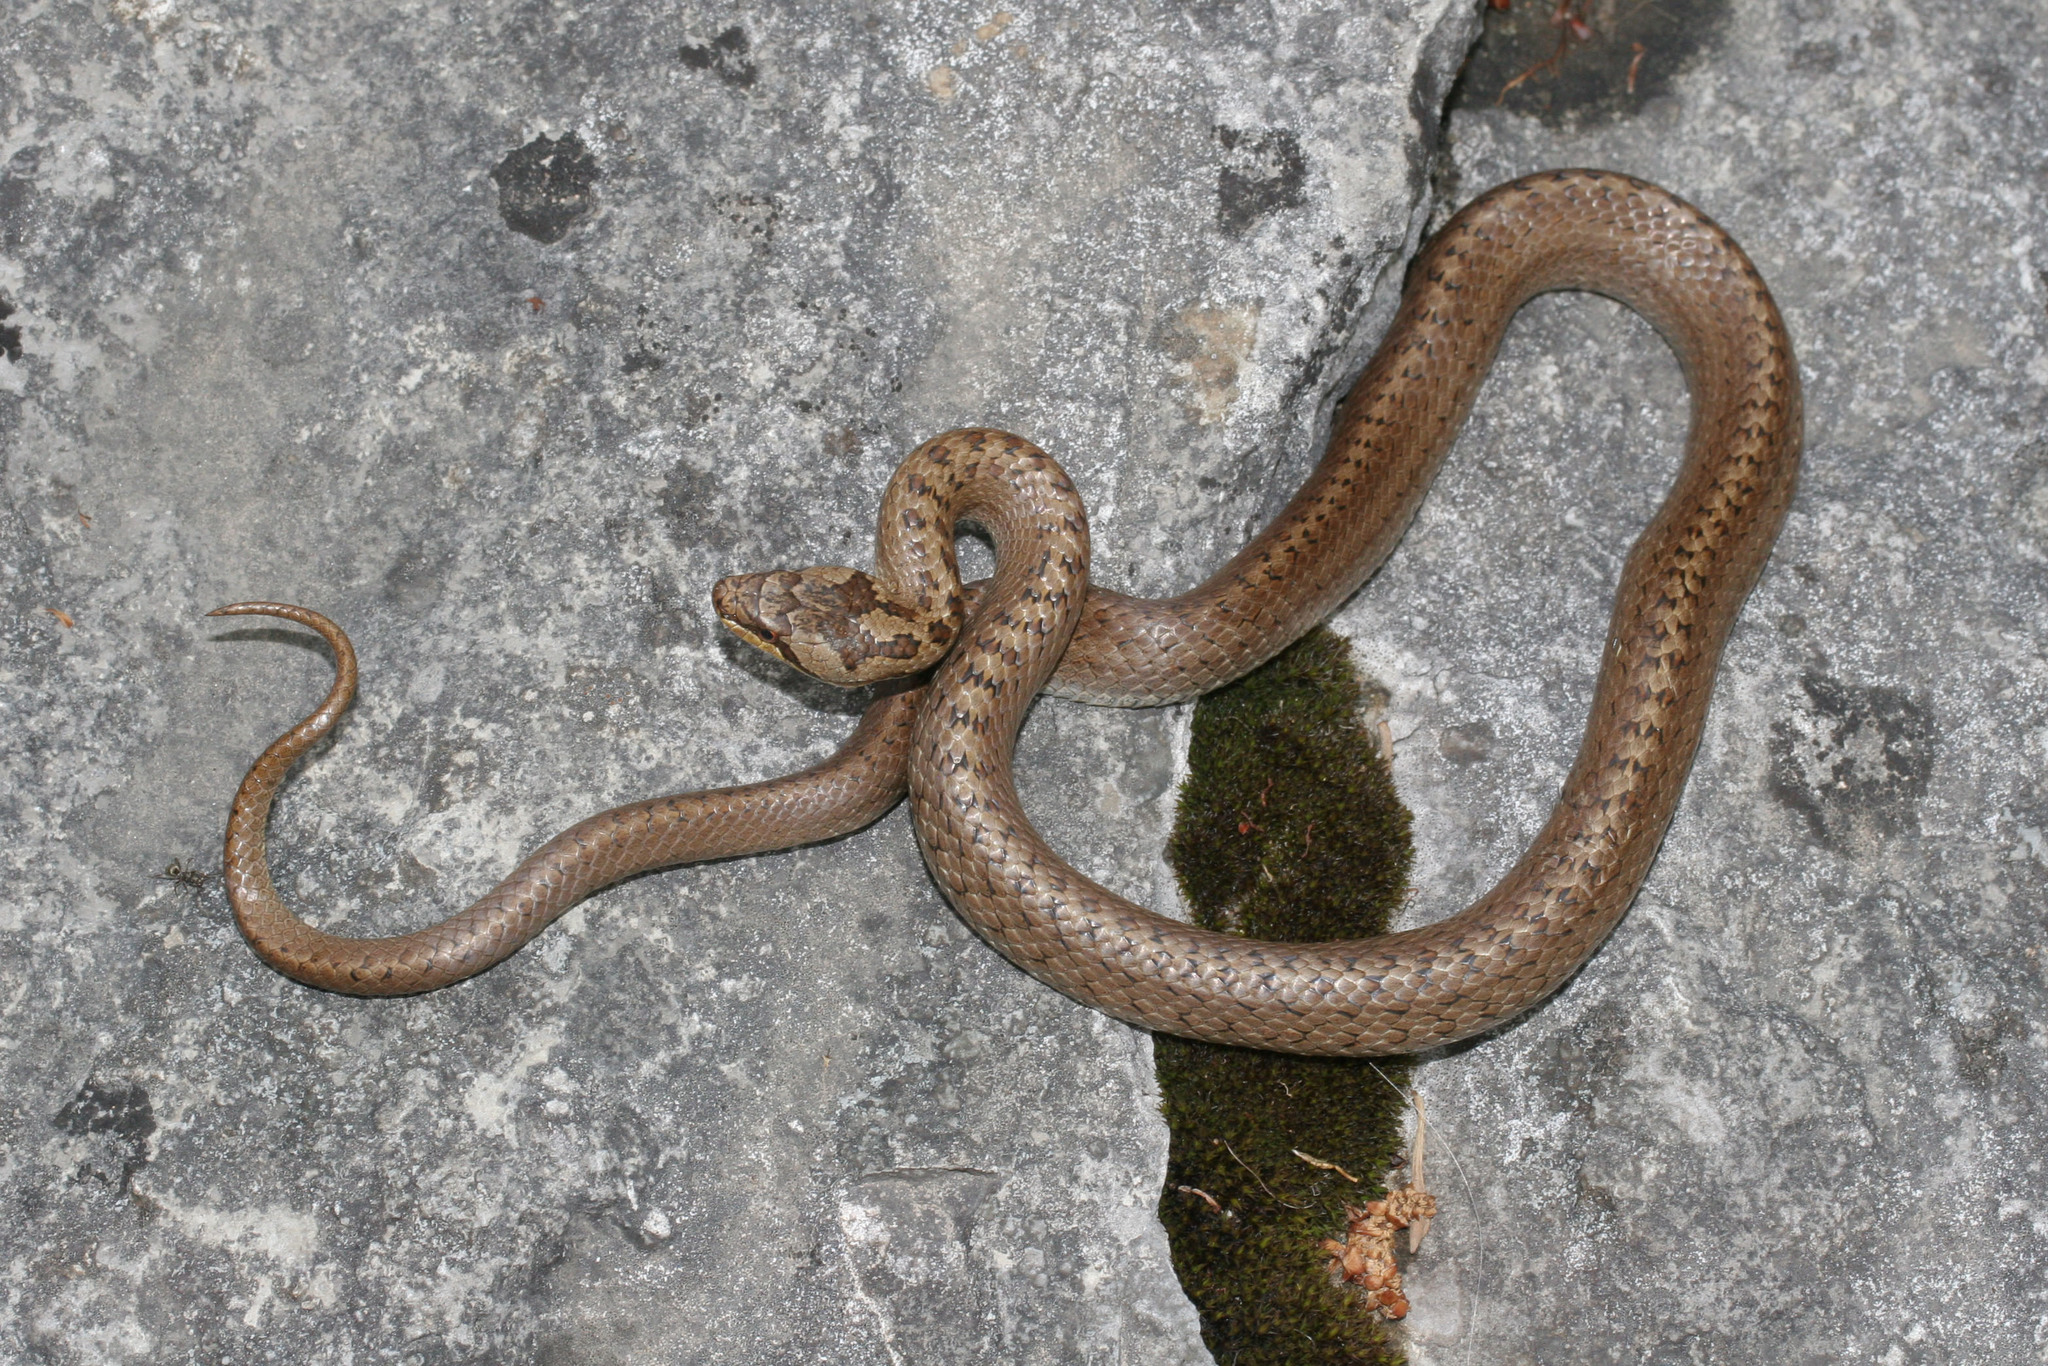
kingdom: Animalia
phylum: Chordata
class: Squamata
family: Colubridae
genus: Coronella
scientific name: Coronella austriaca
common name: Smooth snake
